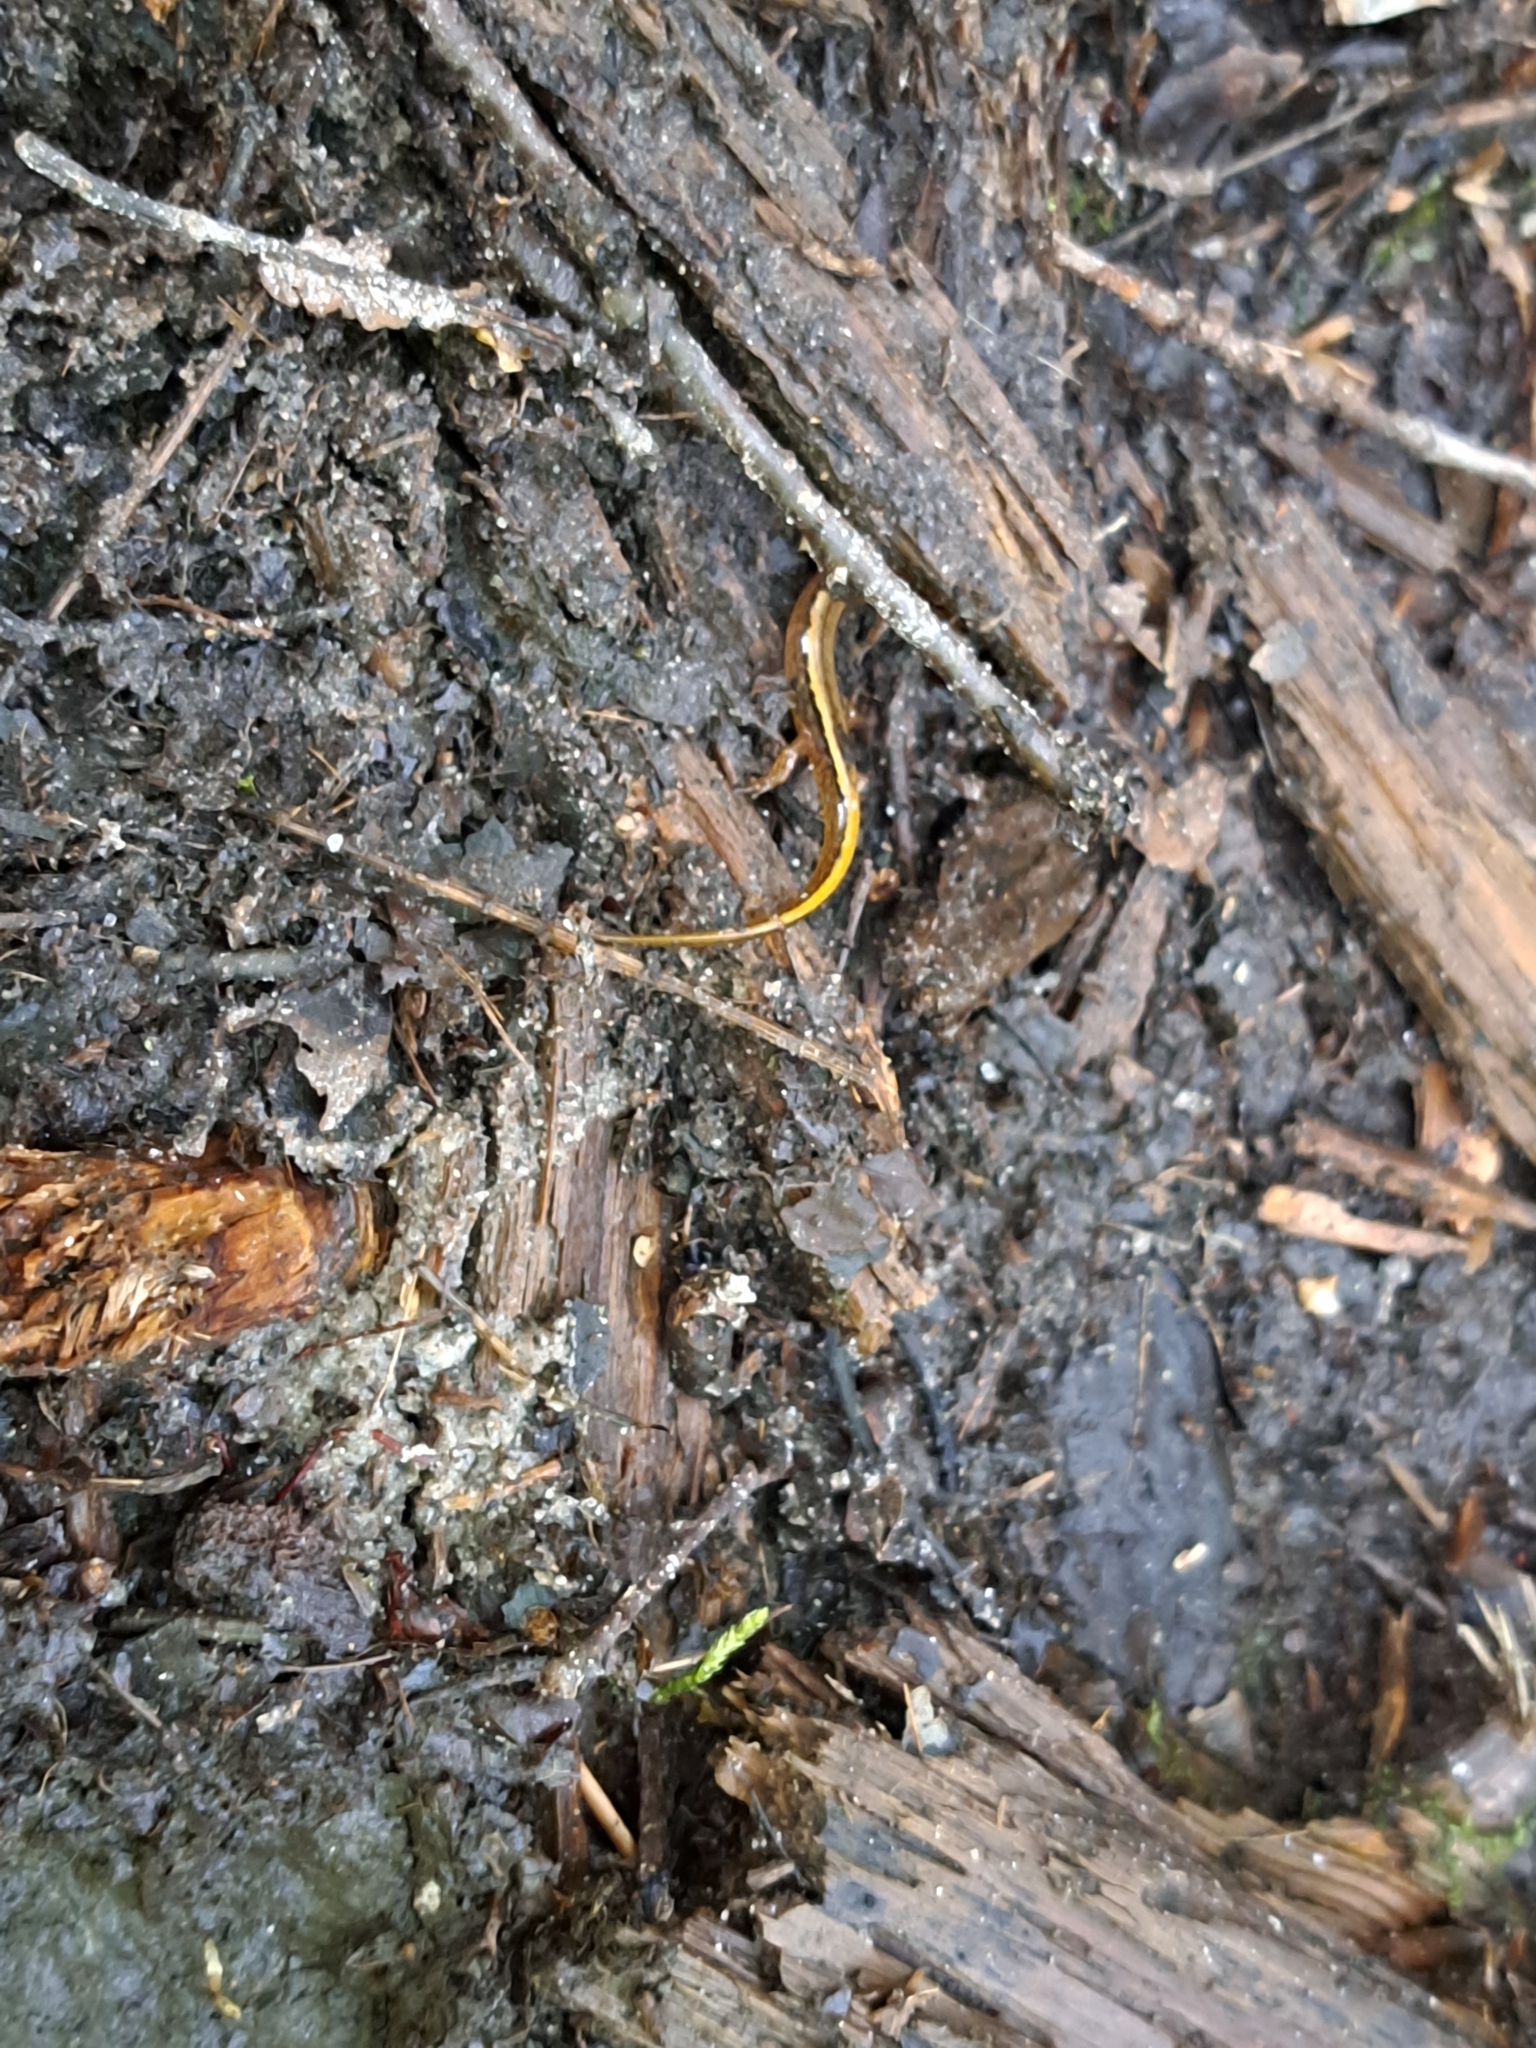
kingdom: Animalia
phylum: Chordata
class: Amphibia
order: Caudata
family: Plethodontidae
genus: Eurycea
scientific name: Eurycea bislineata
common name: Northern two-lined salamander
